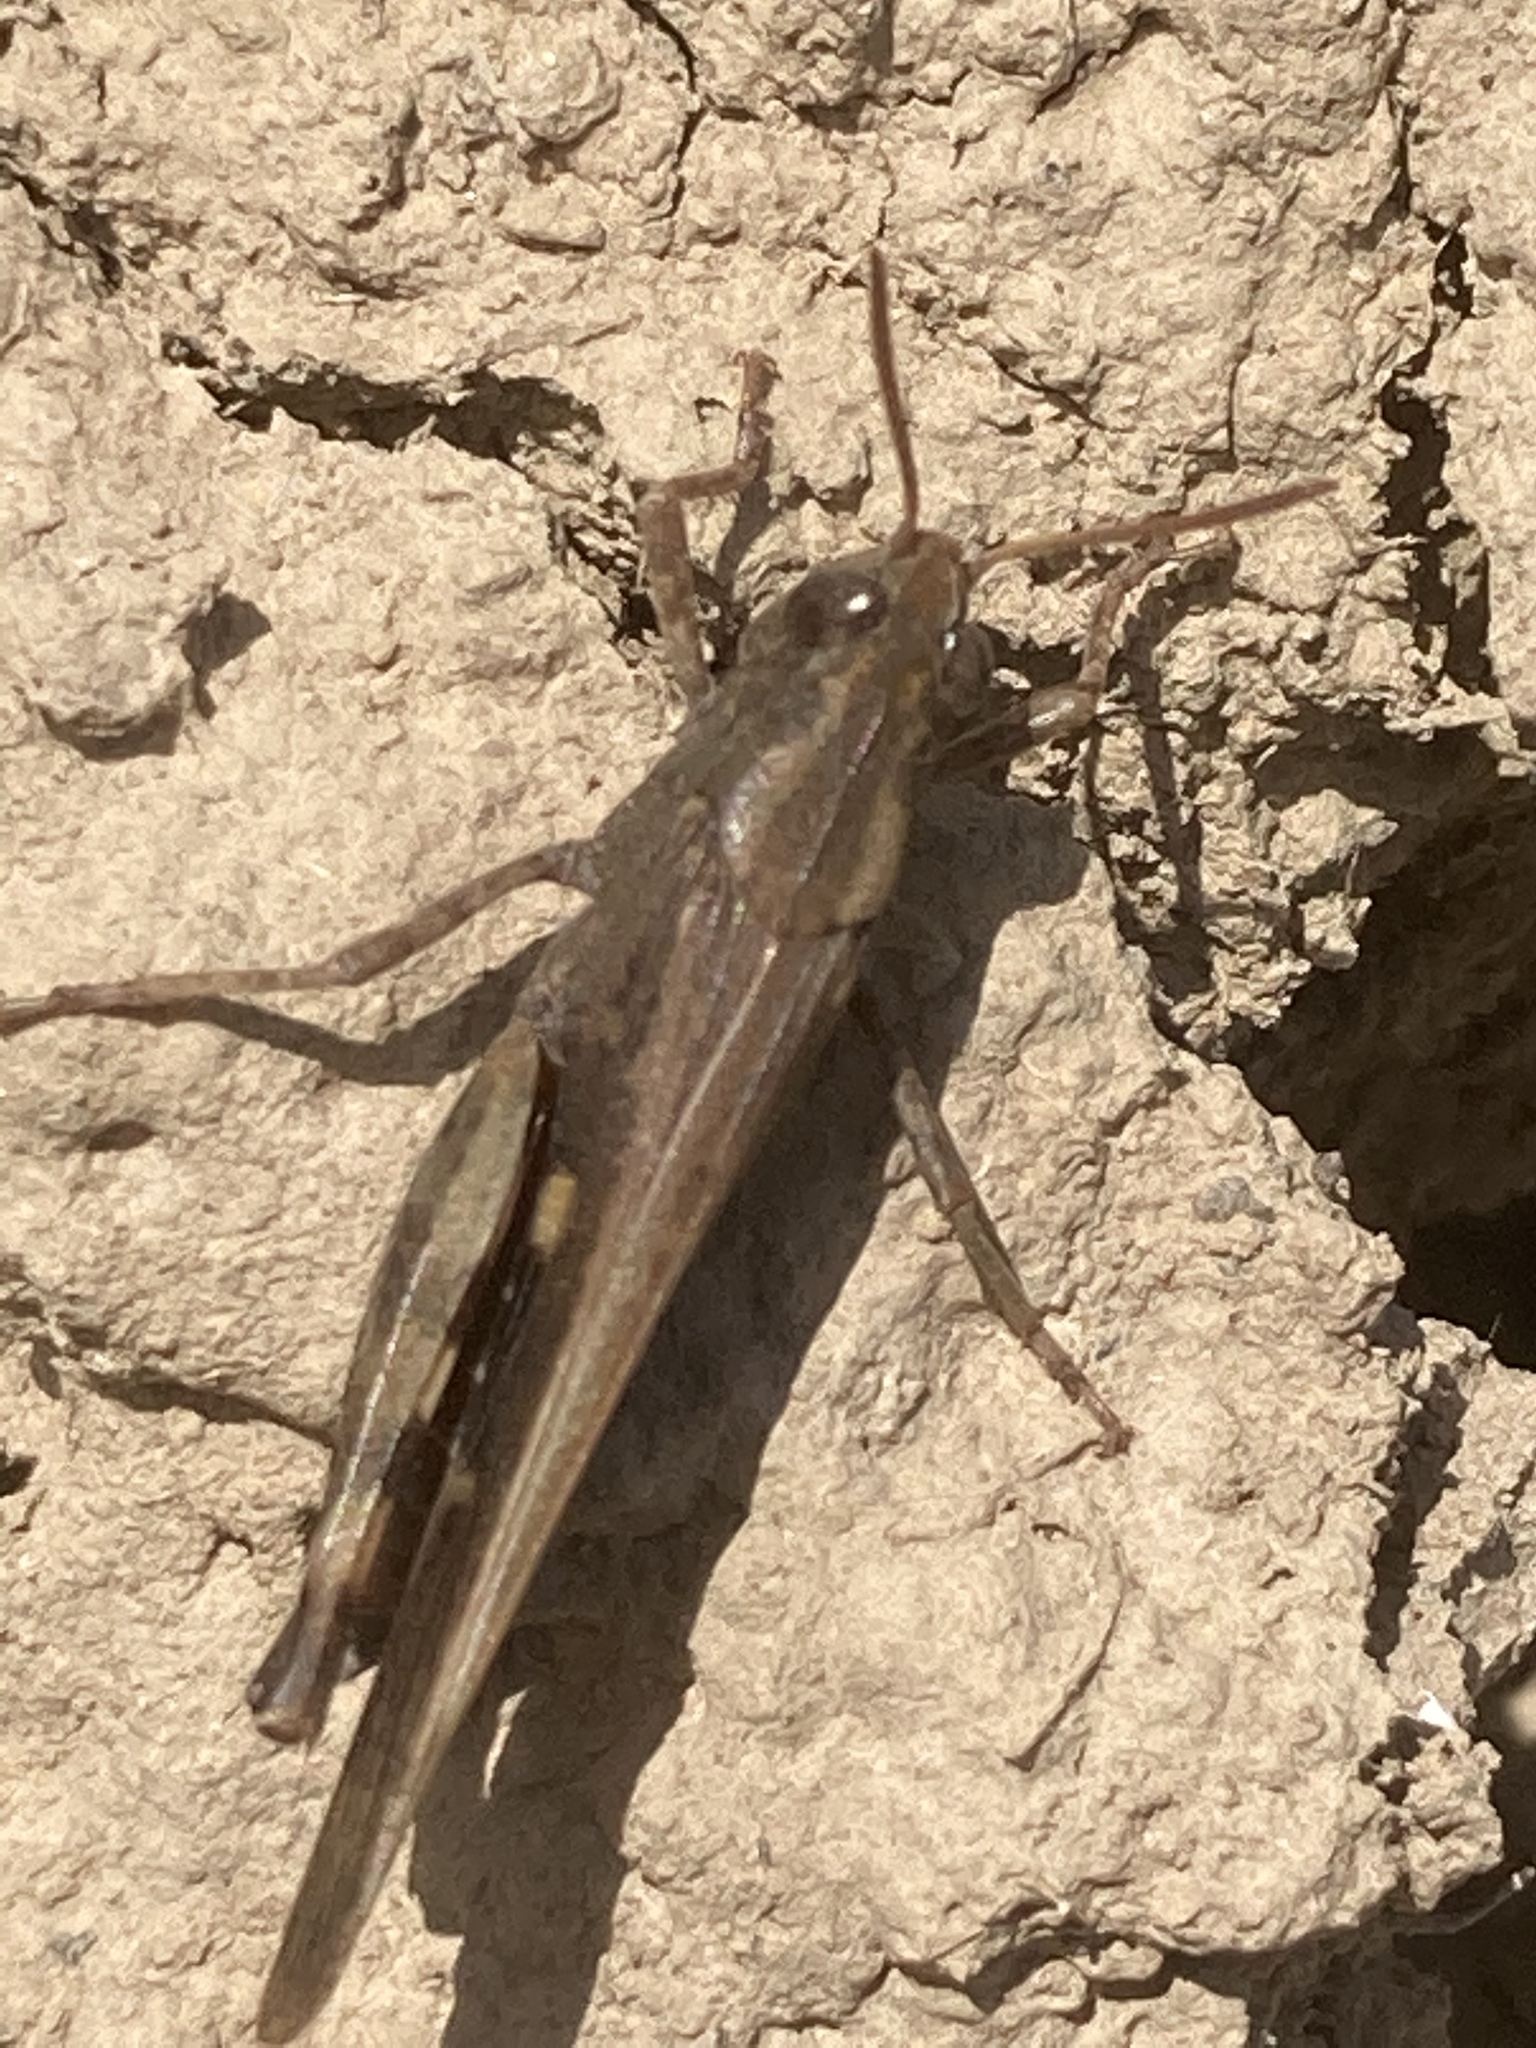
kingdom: Animalia
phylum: Arthropoda
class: Insecta
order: Orthoptera
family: Acrididae
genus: Aiolopus
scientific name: Aiolopus strepens
